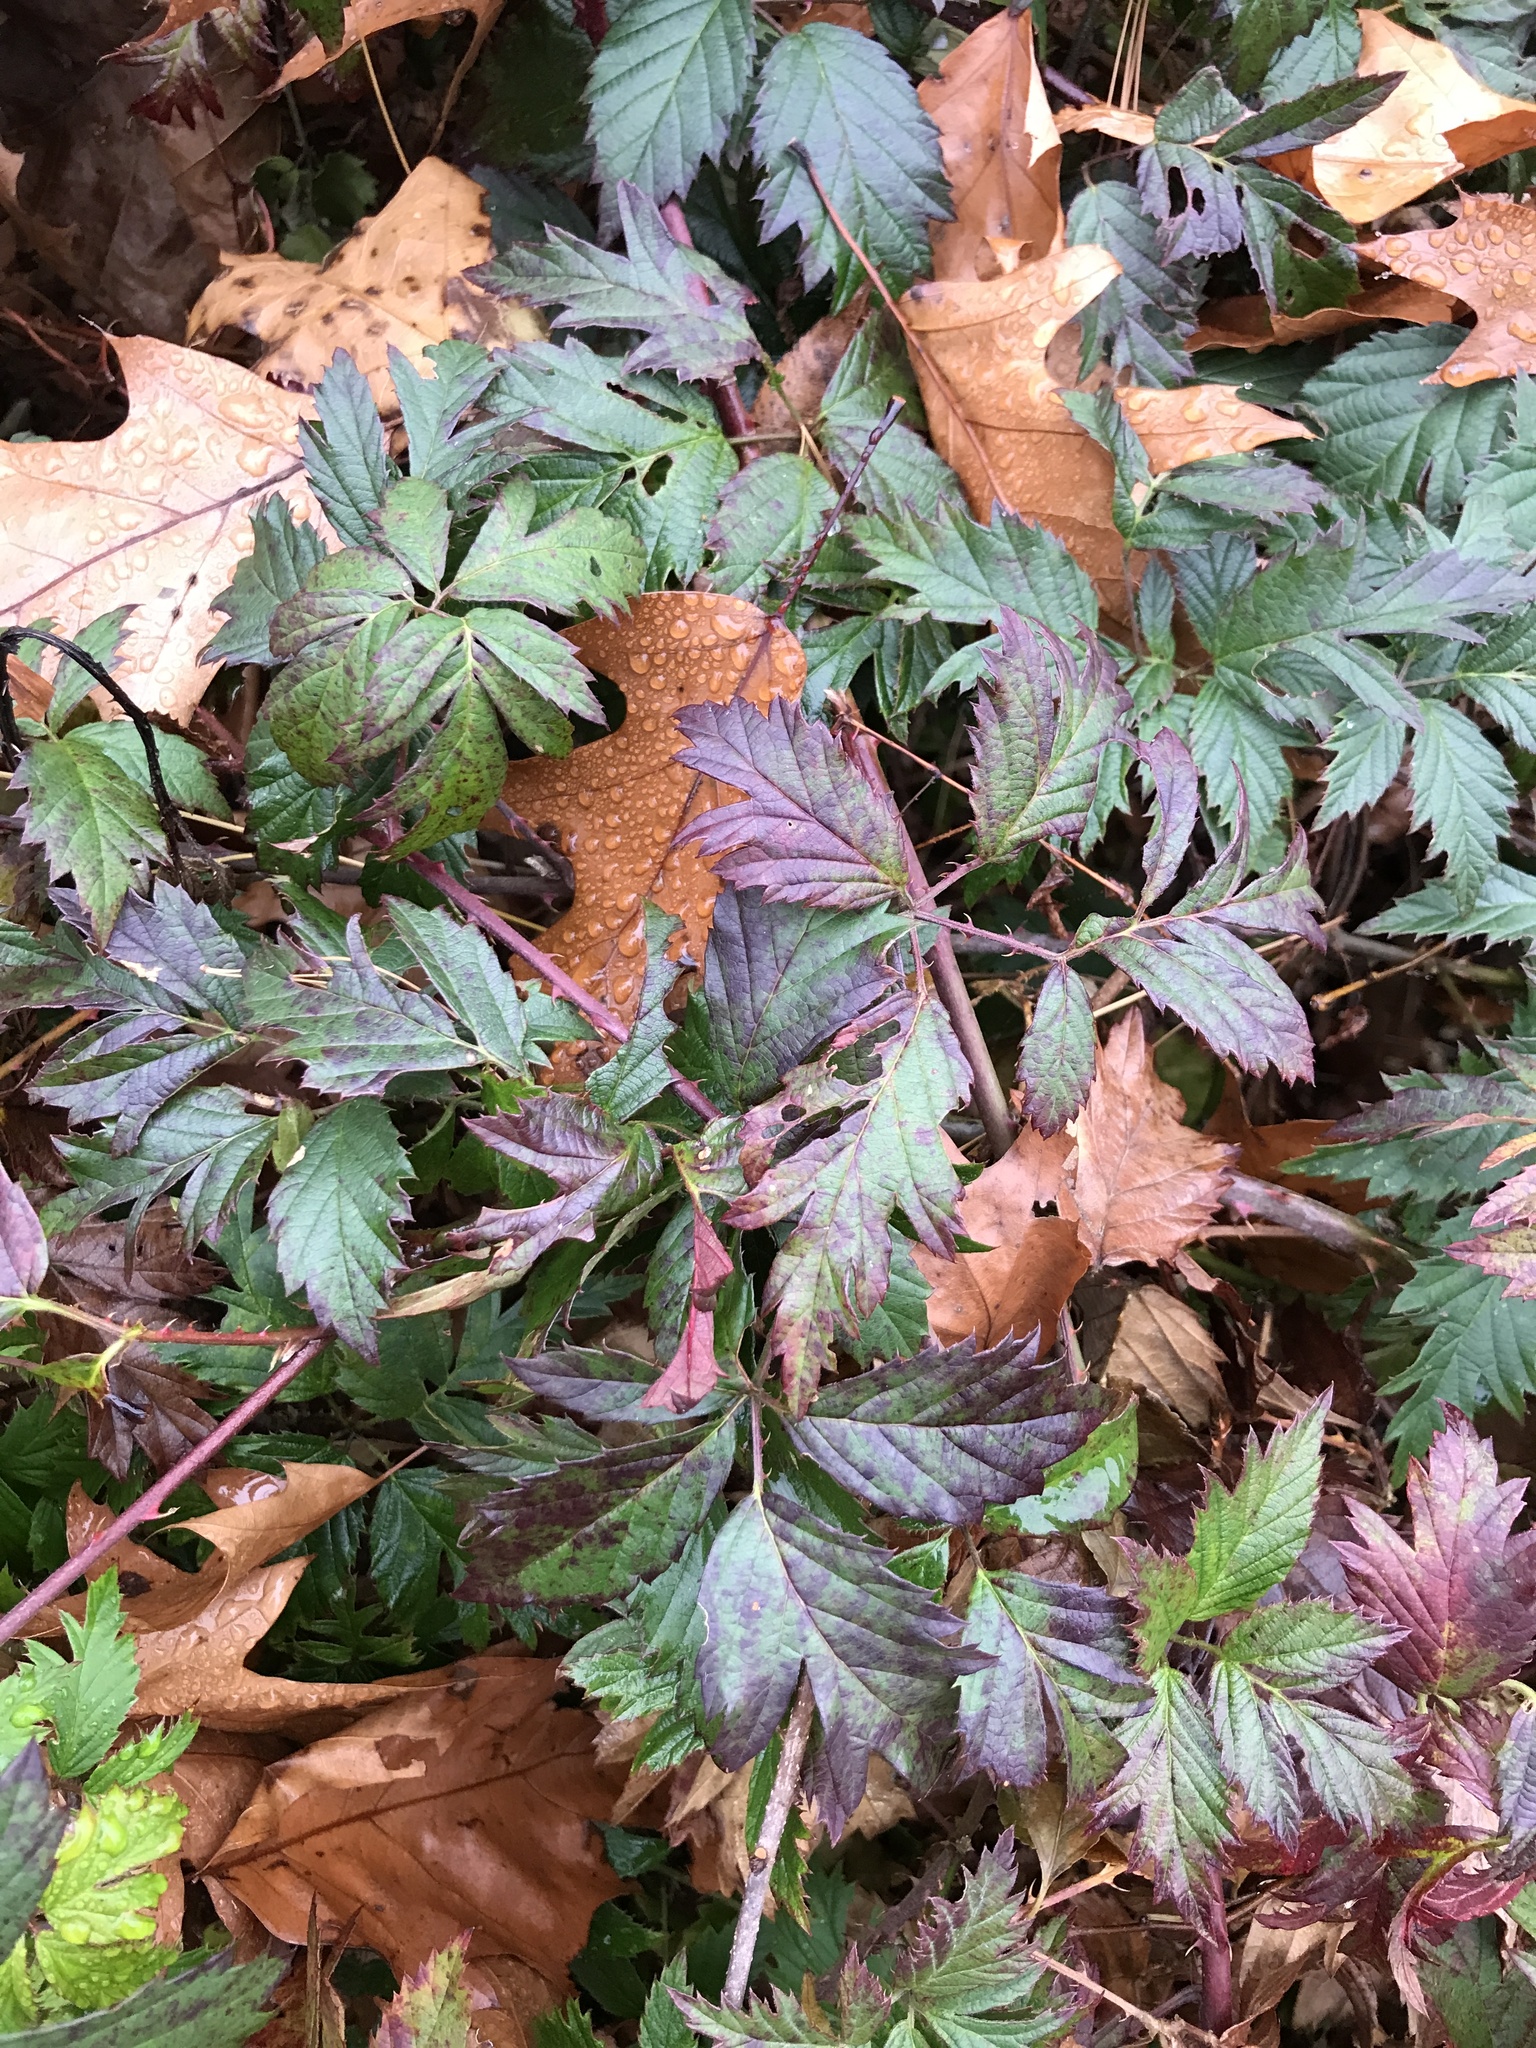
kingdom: Plantae
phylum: Tracheophyta
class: Magnoliopsida
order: Rosales
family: Rosaceae
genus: Rubus
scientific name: Rubus laciniatus
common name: Evergreen blackberry
